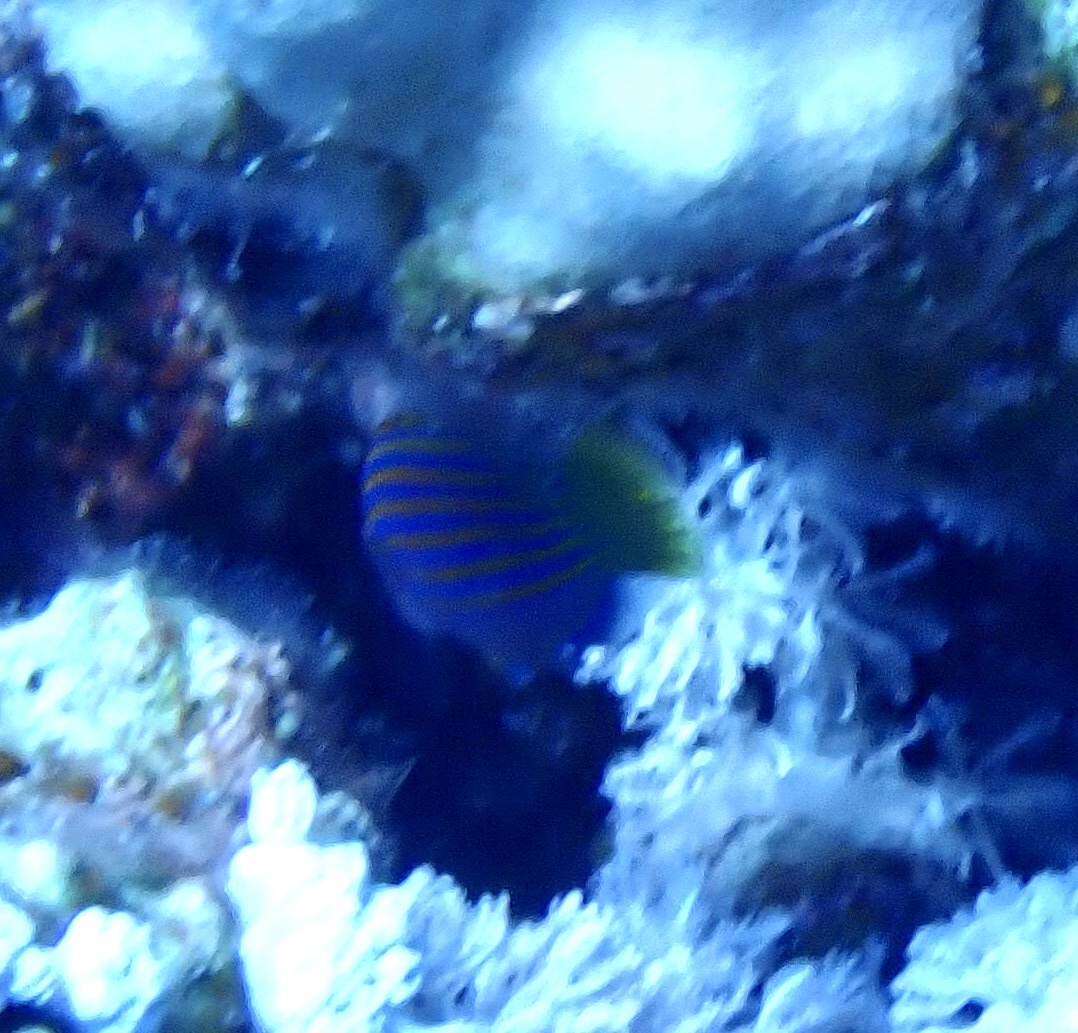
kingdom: Animalia
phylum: Chordata
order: Perciformes
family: Labridae
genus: Pseudocheilinus
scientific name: Pseudocheilinus hexataenia
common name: Sixline wrasse
